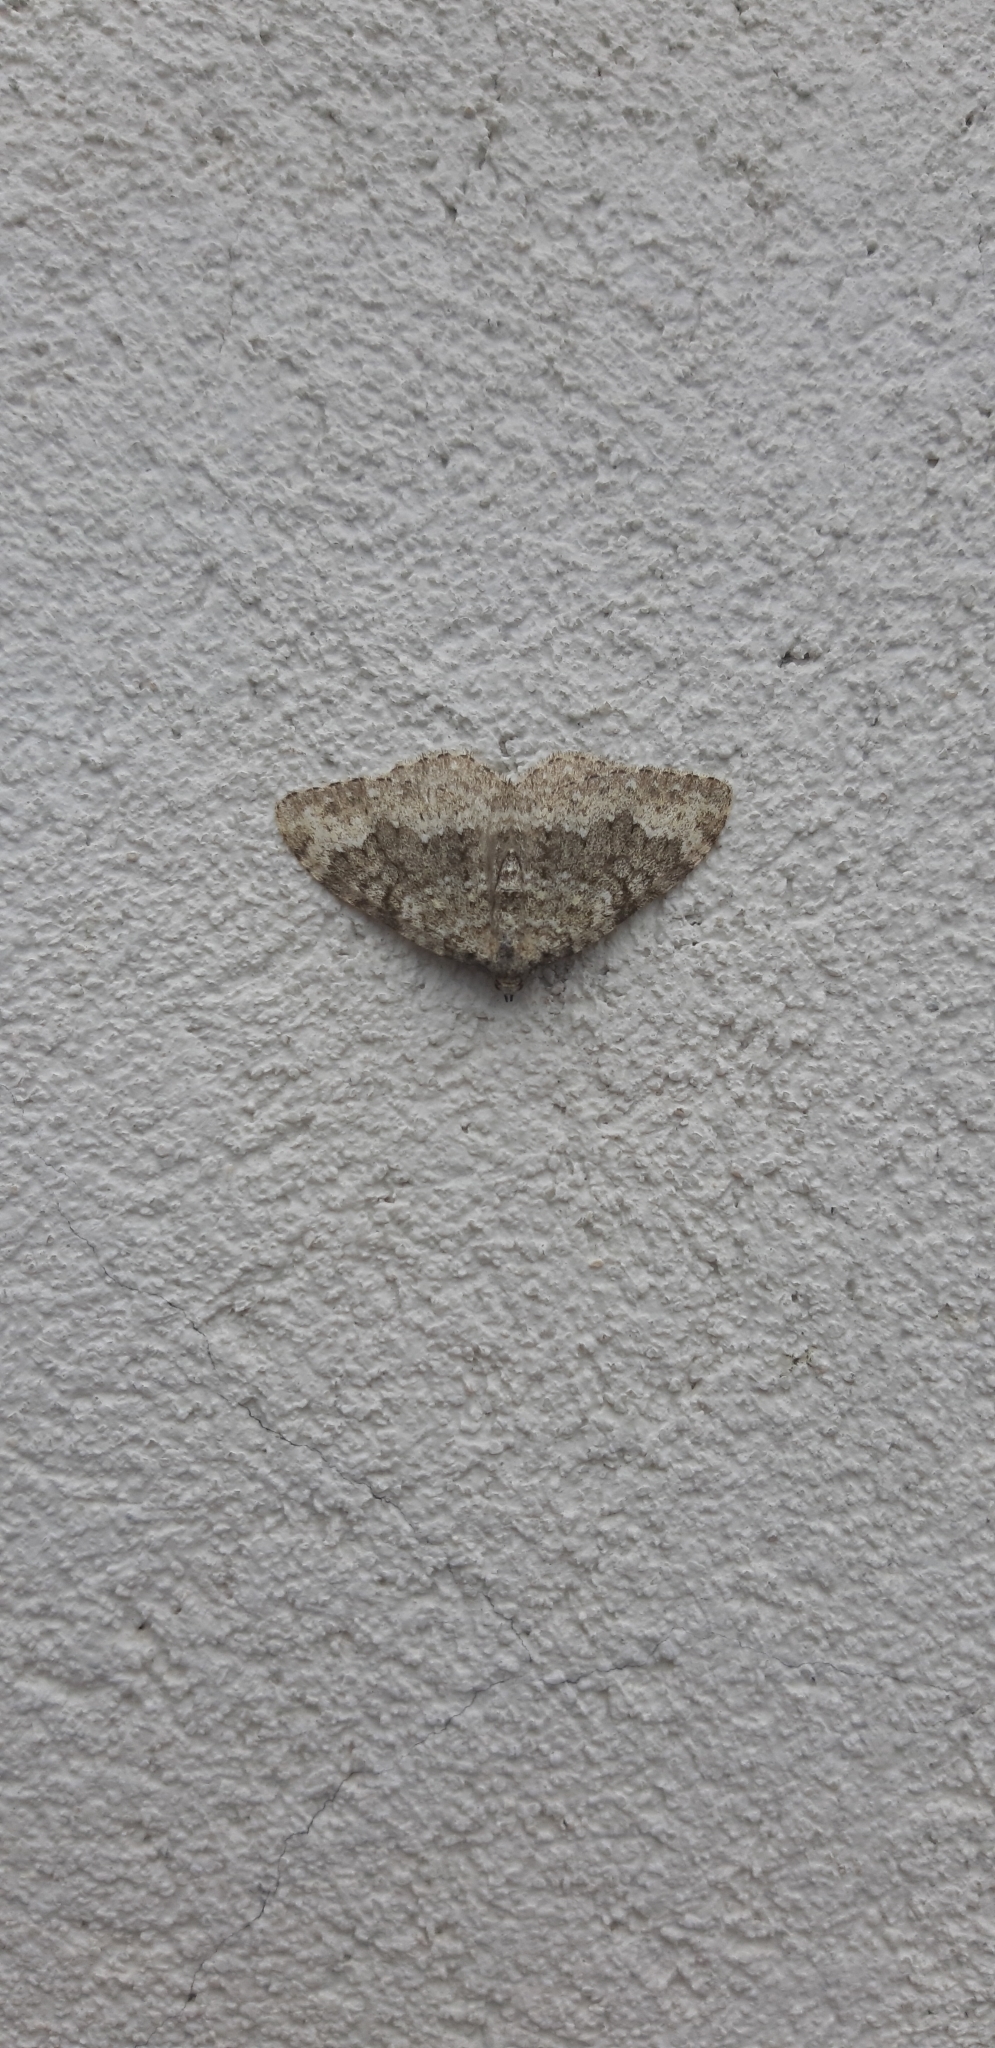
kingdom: Animalia
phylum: Arthropoda
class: Insecta
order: Lepidoptera
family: Geometridae
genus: Nebula
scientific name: Nebula salicata
